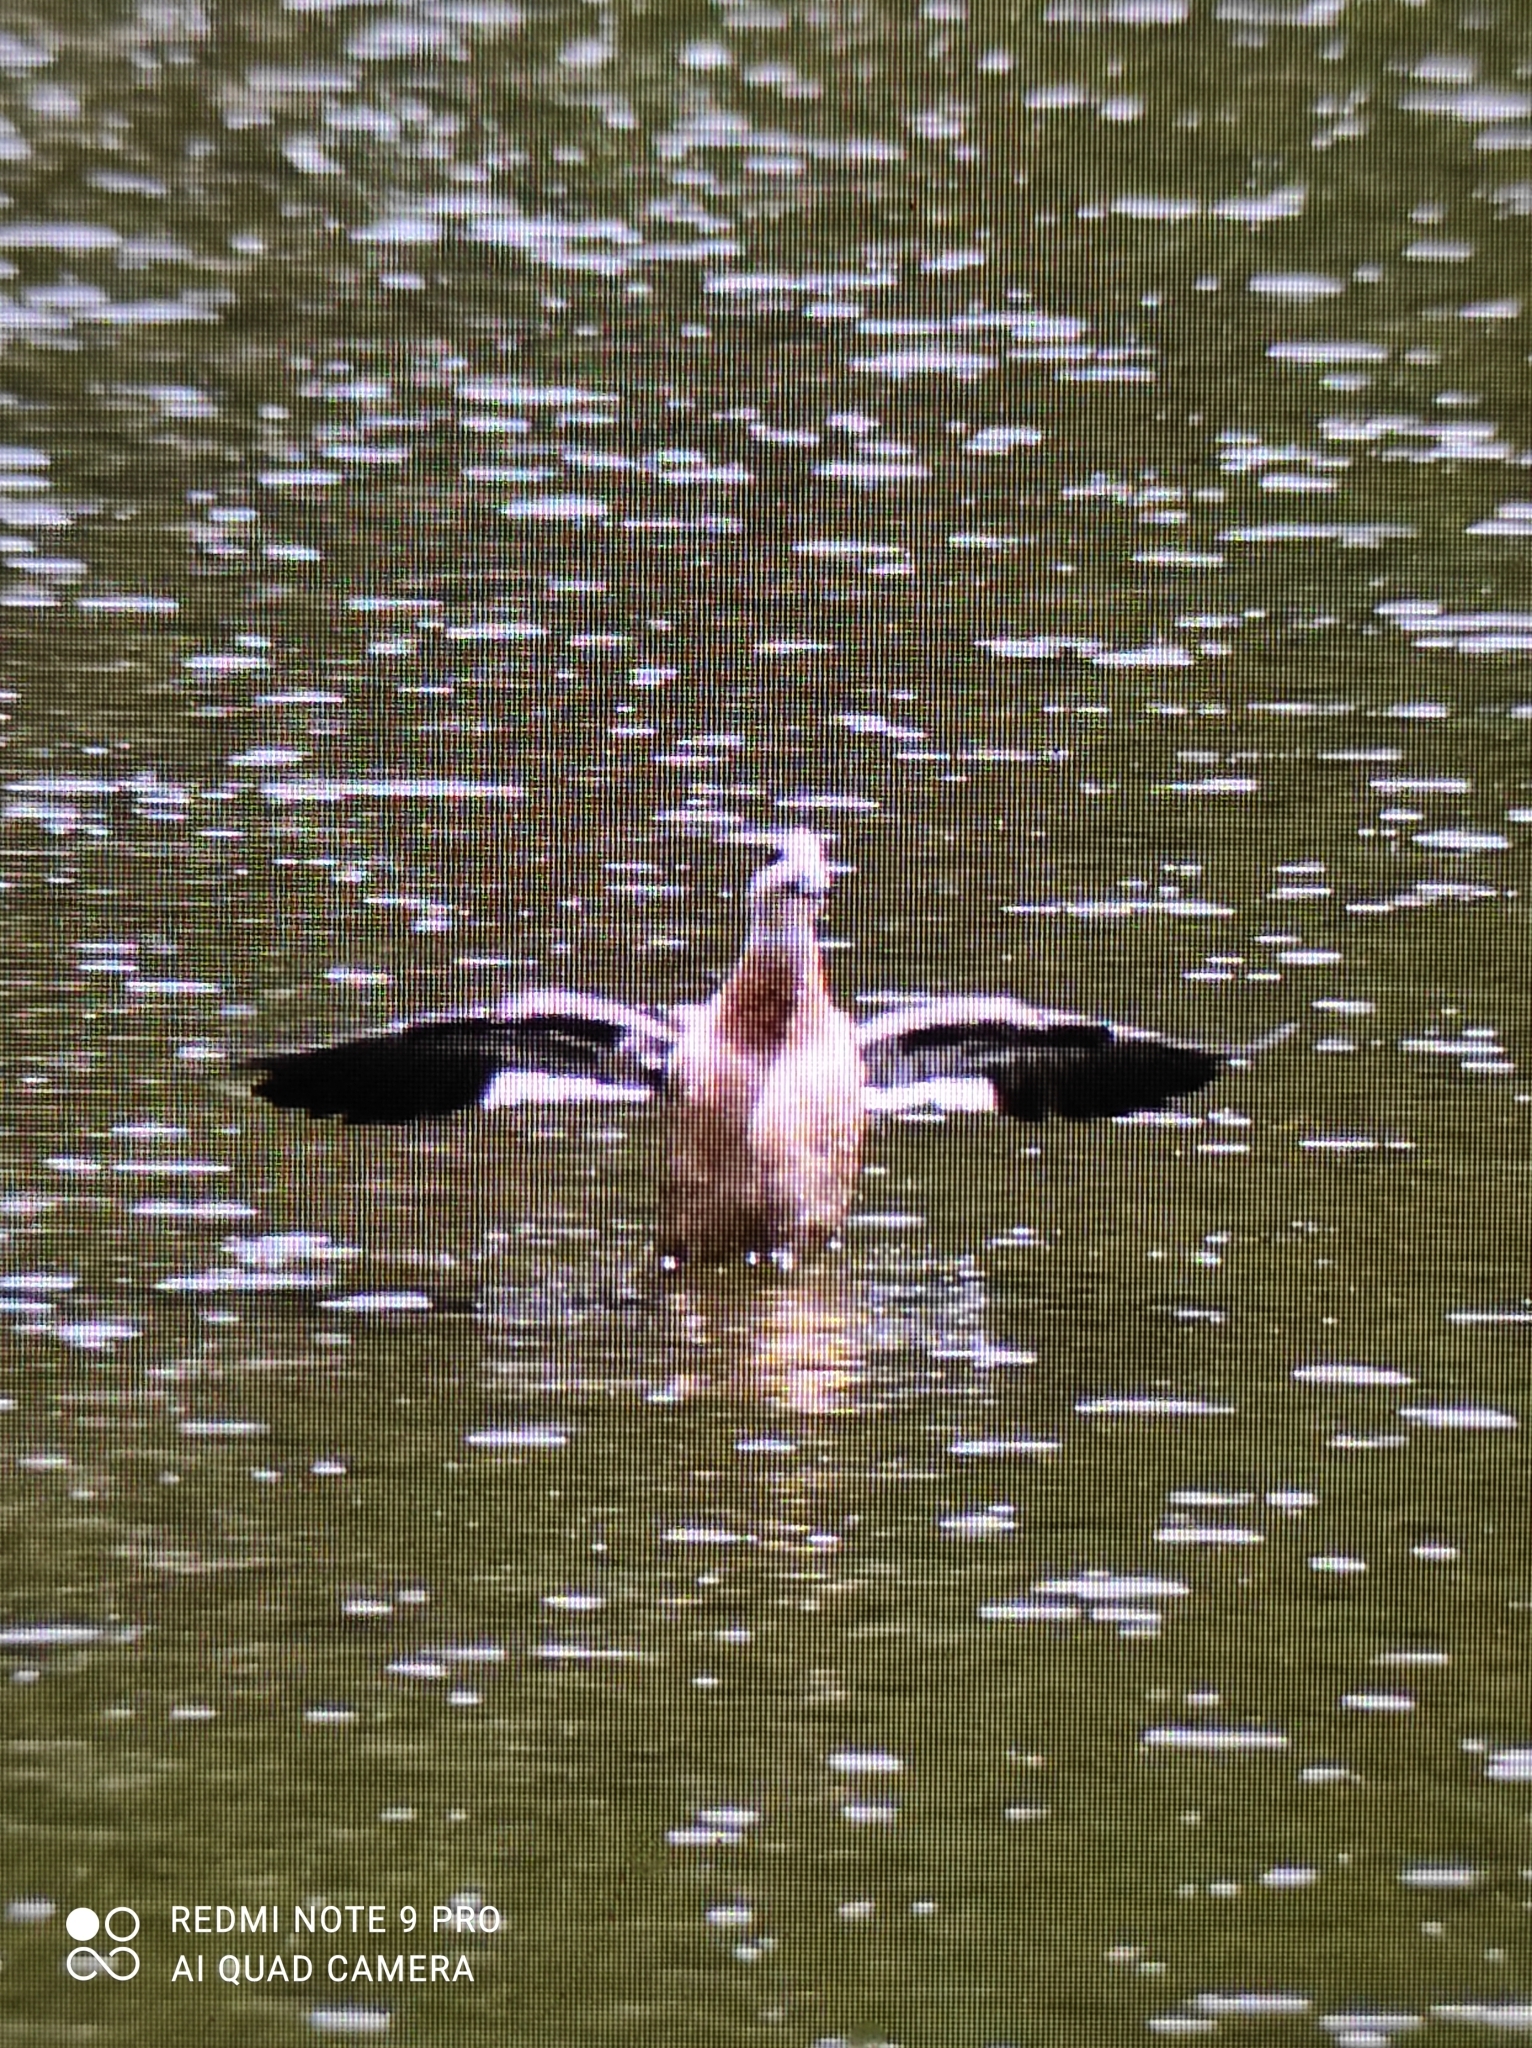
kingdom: Animalia
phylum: Chordata
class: Aves
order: Anseriformes
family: Anatidae
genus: Lophonetta
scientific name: Lophonetta specularioides
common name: Crested duck
